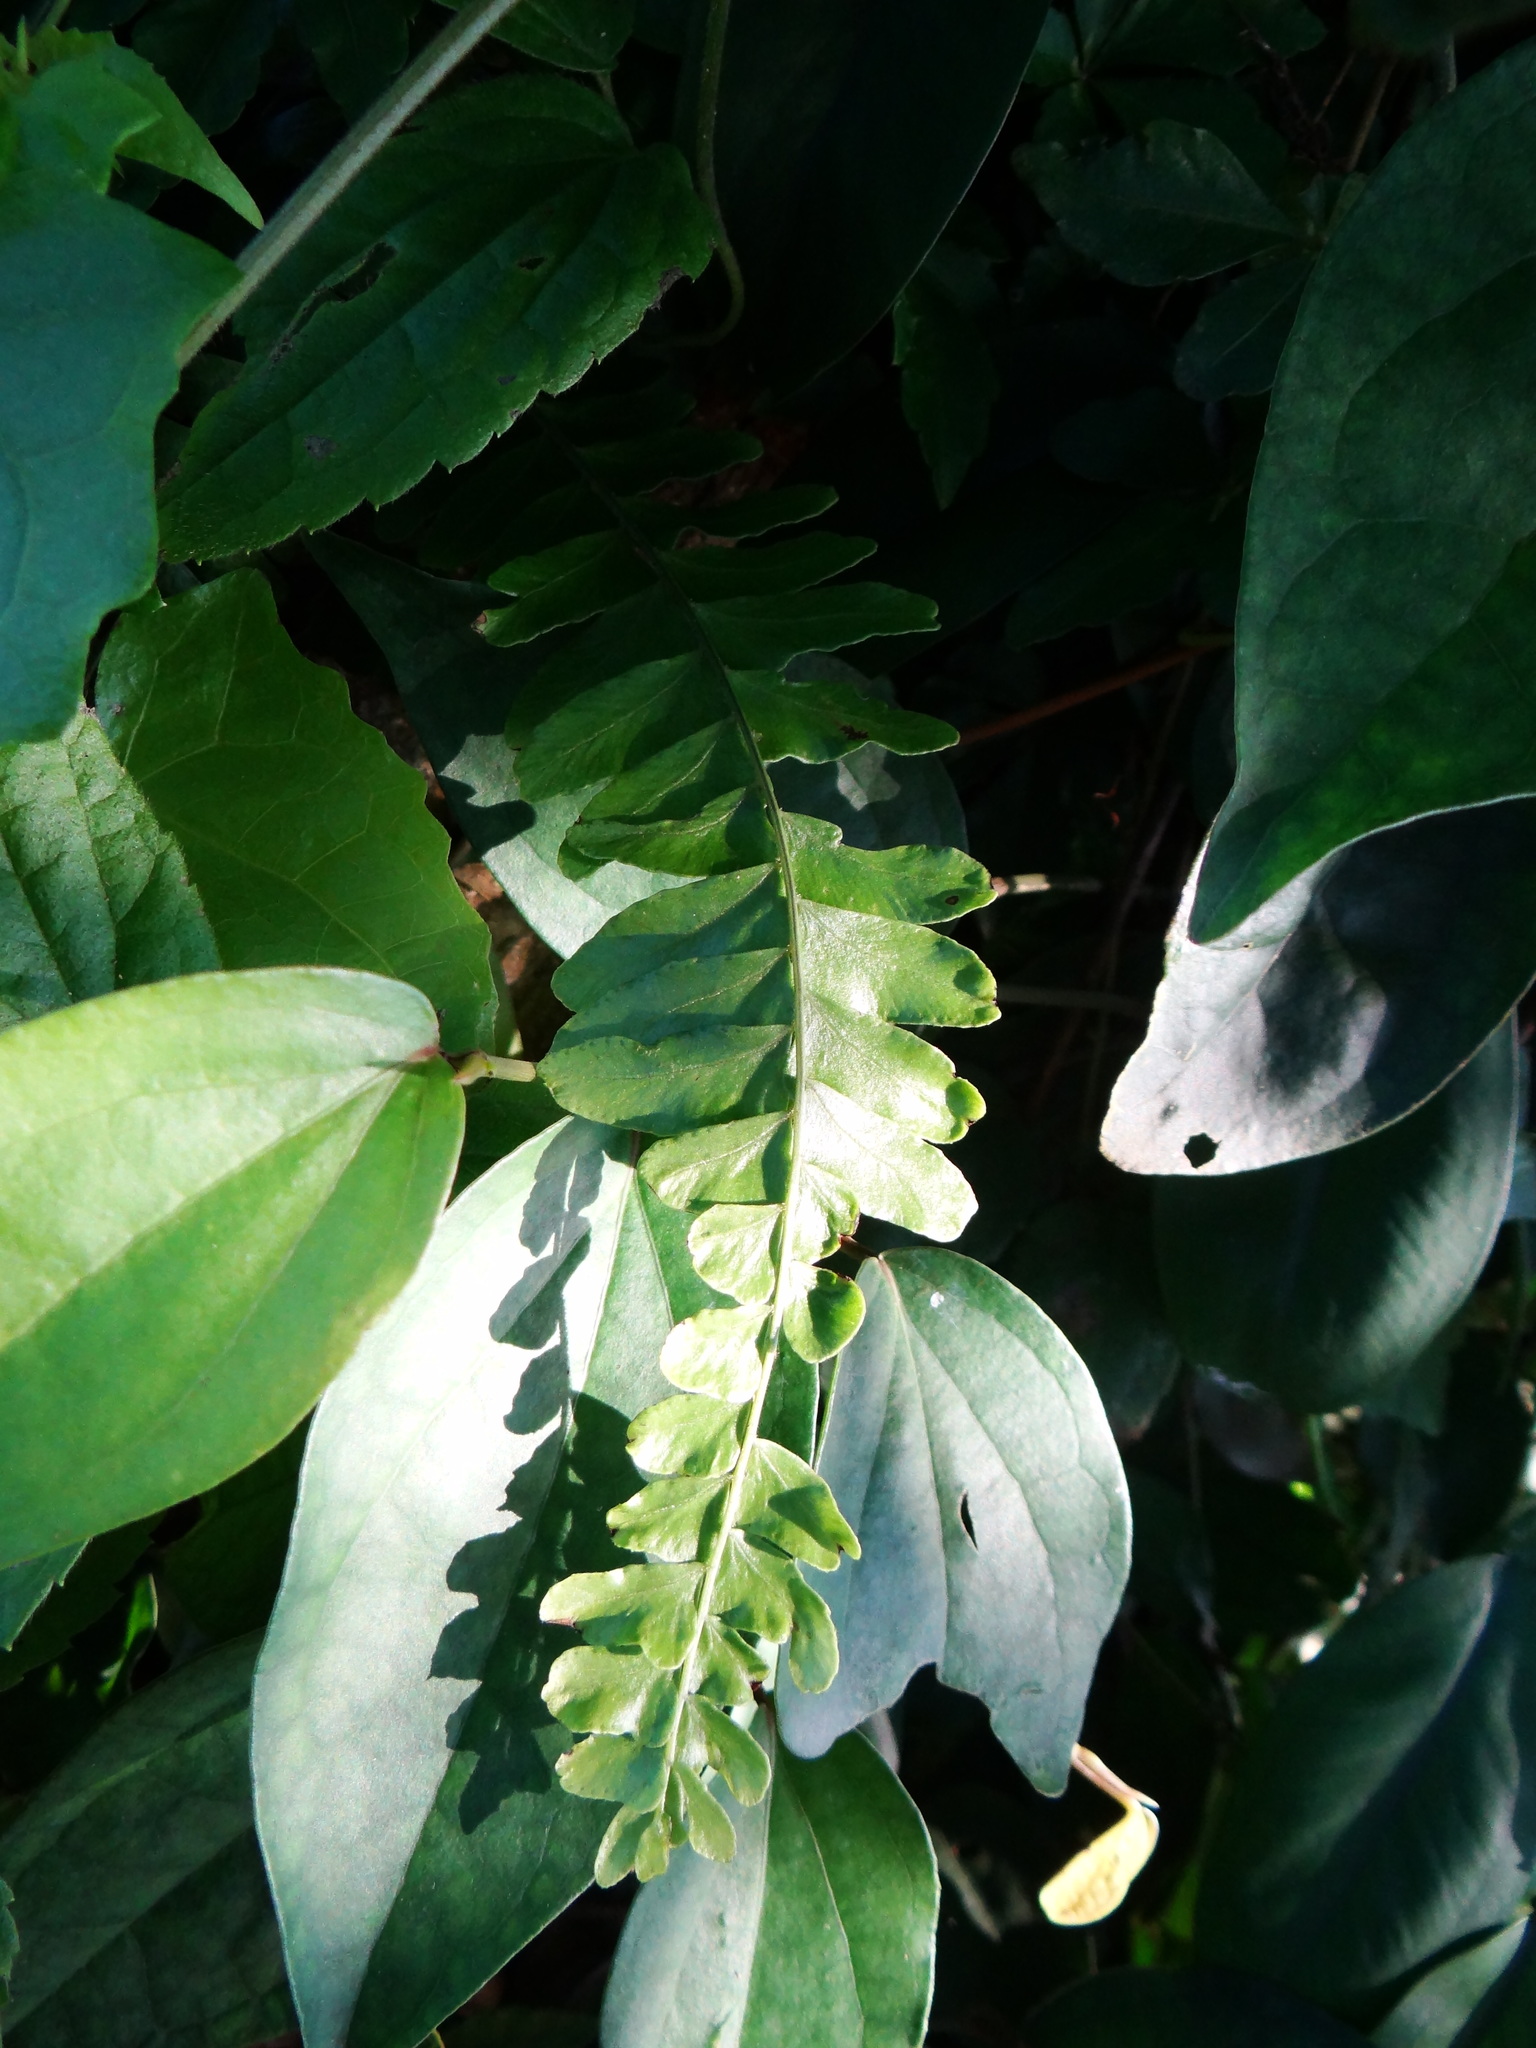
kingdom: Plantae
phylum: Tracheophyta
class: Polypodiopsida
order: Polypodiales
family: Tectariaceae
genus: Arthropteris
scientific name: Arthropteris palisotii
